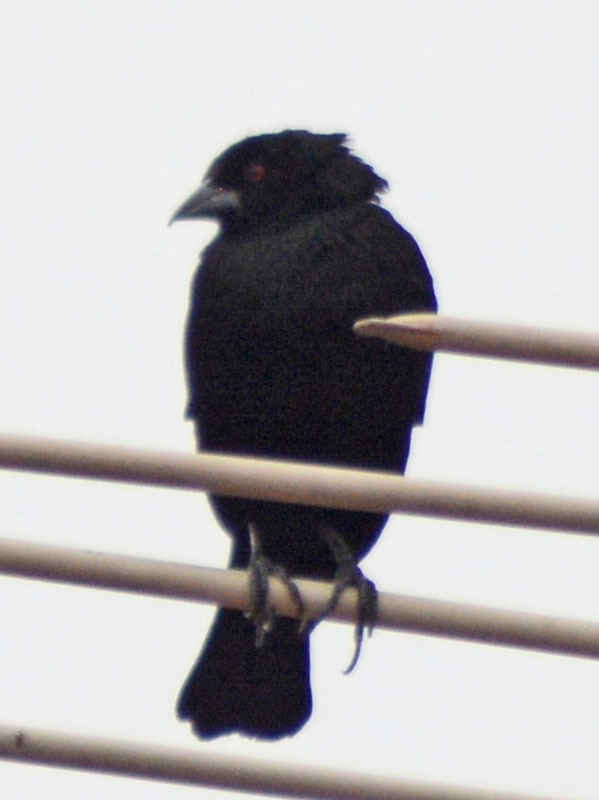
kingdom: Animalia
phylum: Chordata
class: Aves
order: Passeriformes
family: Icteridae
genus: Molothrus
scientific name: Molothrus aeneus
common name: Bronzed cowbird
